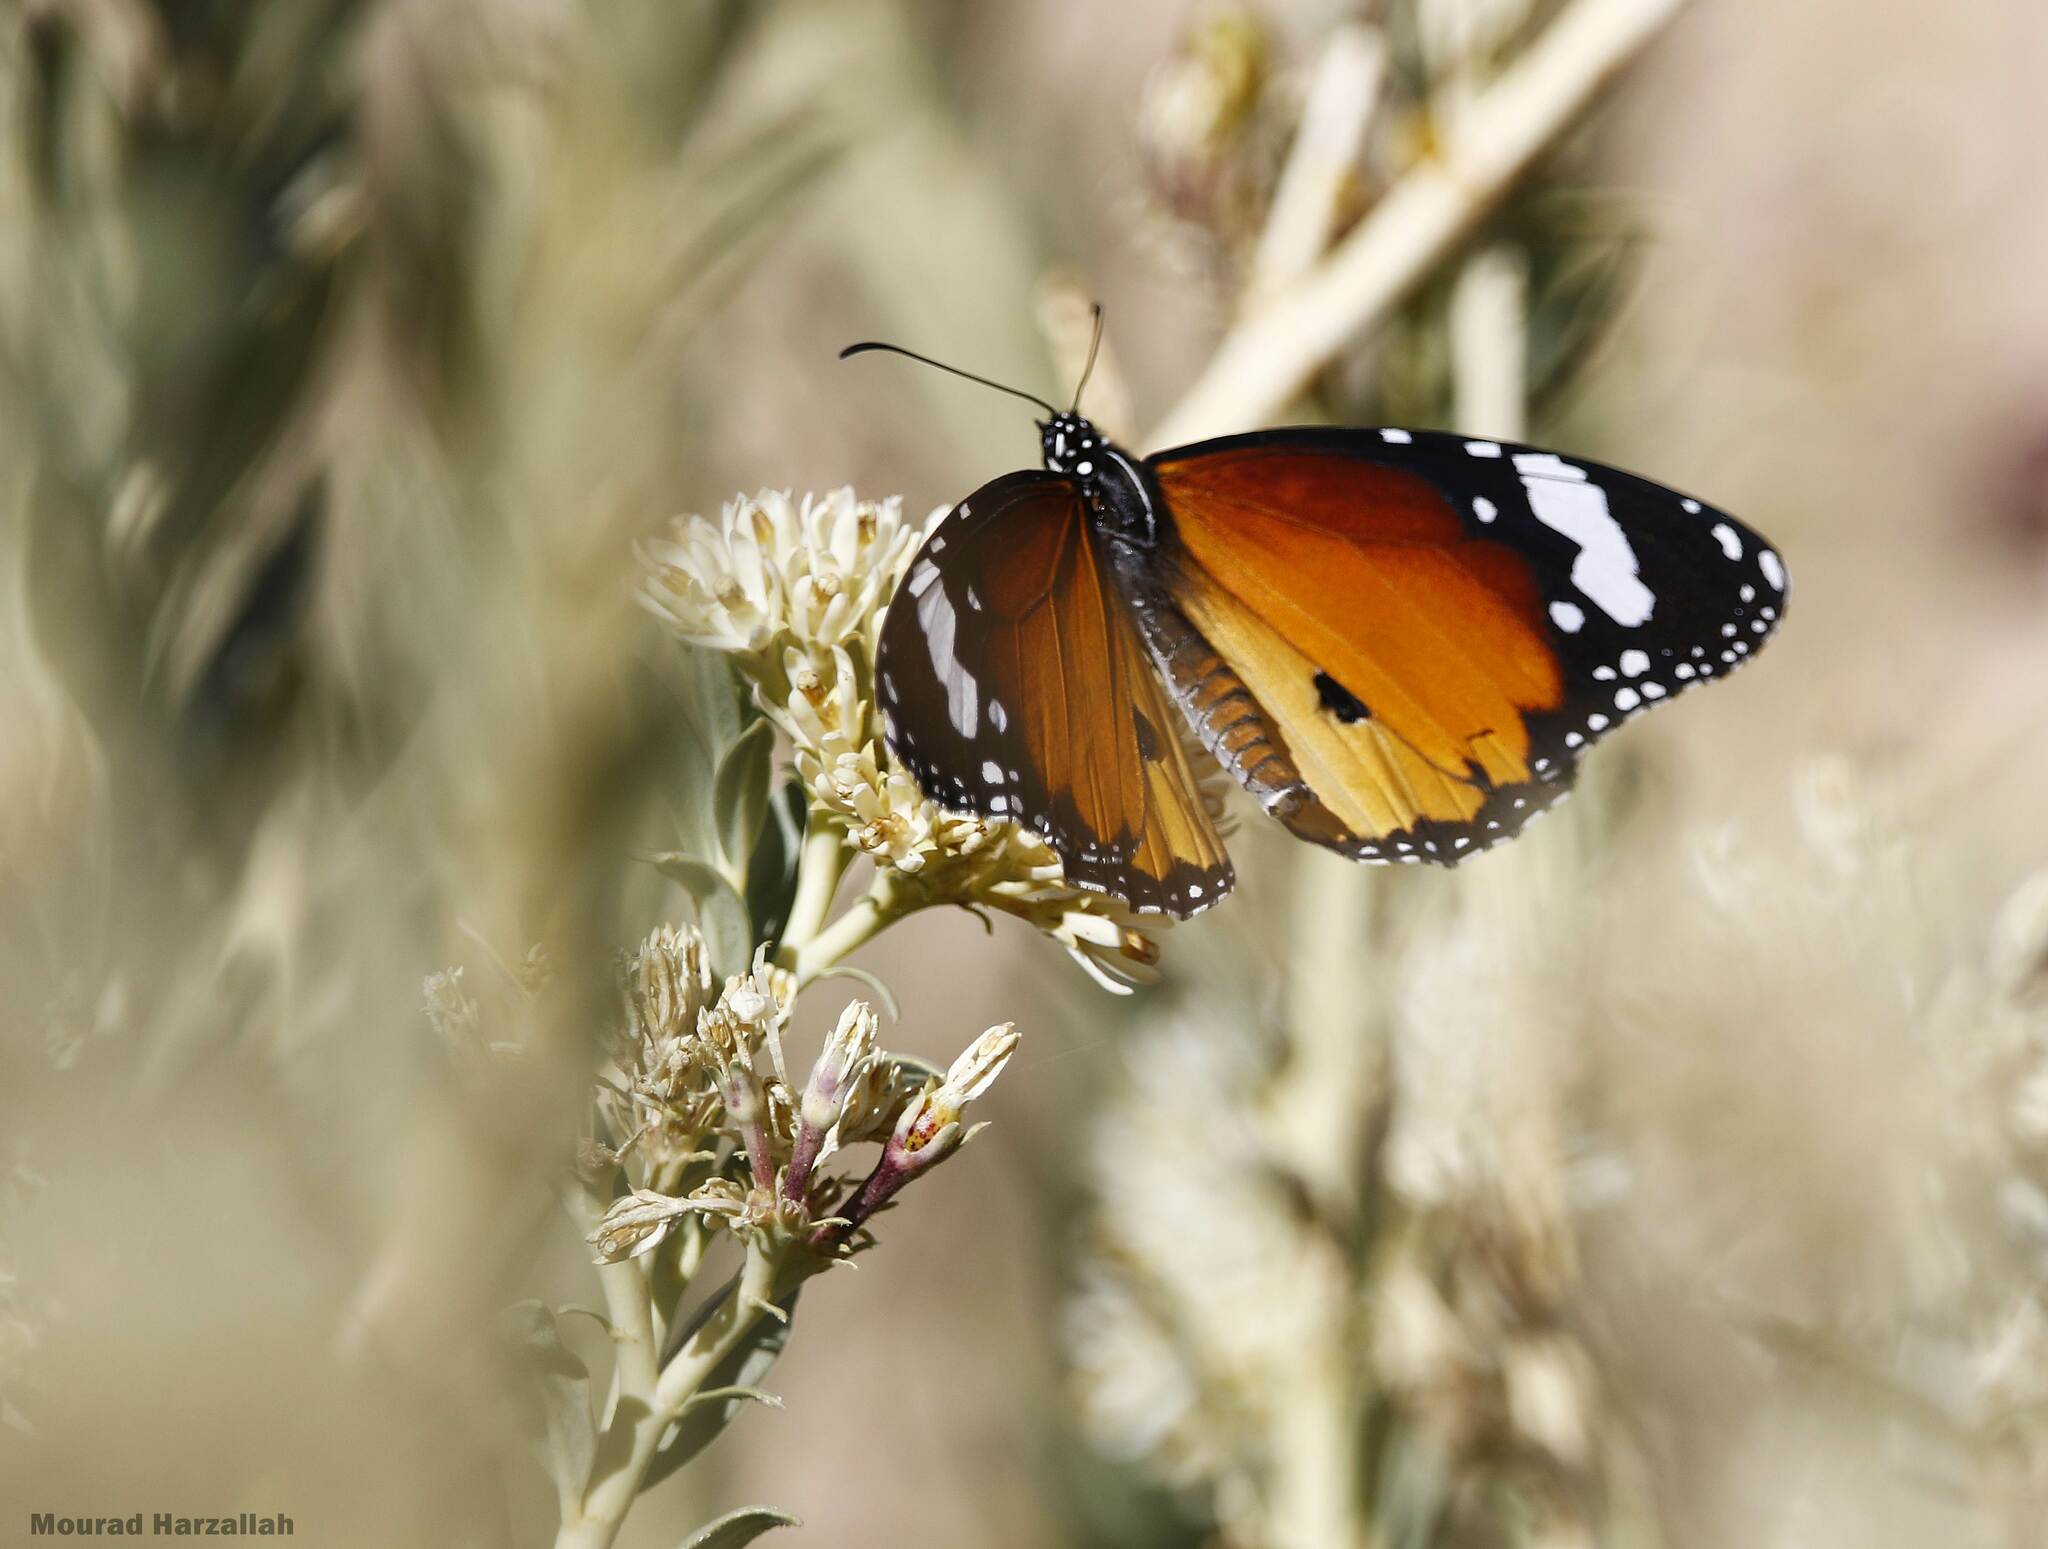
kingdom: Animalia
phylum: Arthropoda
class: Insecta
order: Lepidoptera
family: Nymphalidae
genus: Danaus
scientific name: Danaus chrysippus
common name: Plain tiger
